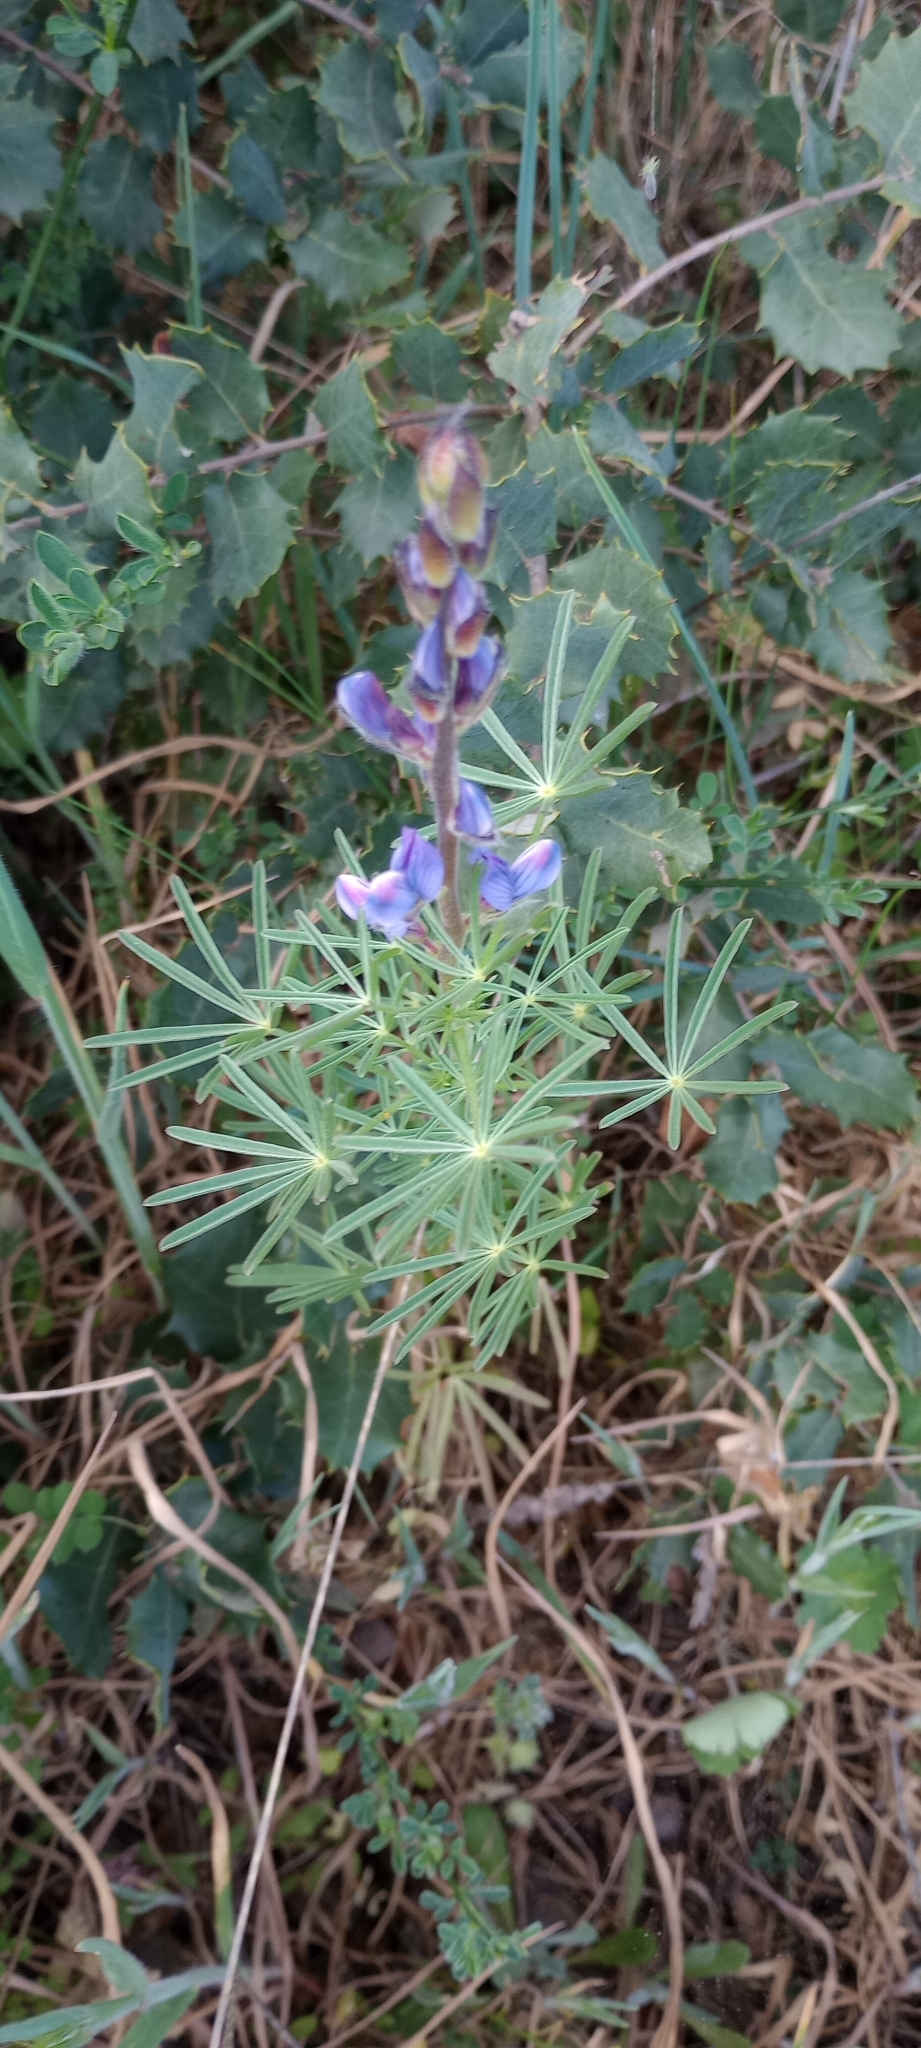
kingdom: Plantae
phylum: Tracheophyta
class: Magnoliopsida
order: Fabales
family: Fabaceae
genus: Lupinus
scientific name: Lupinus angustifolius
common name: Narrow-leaved lupin
